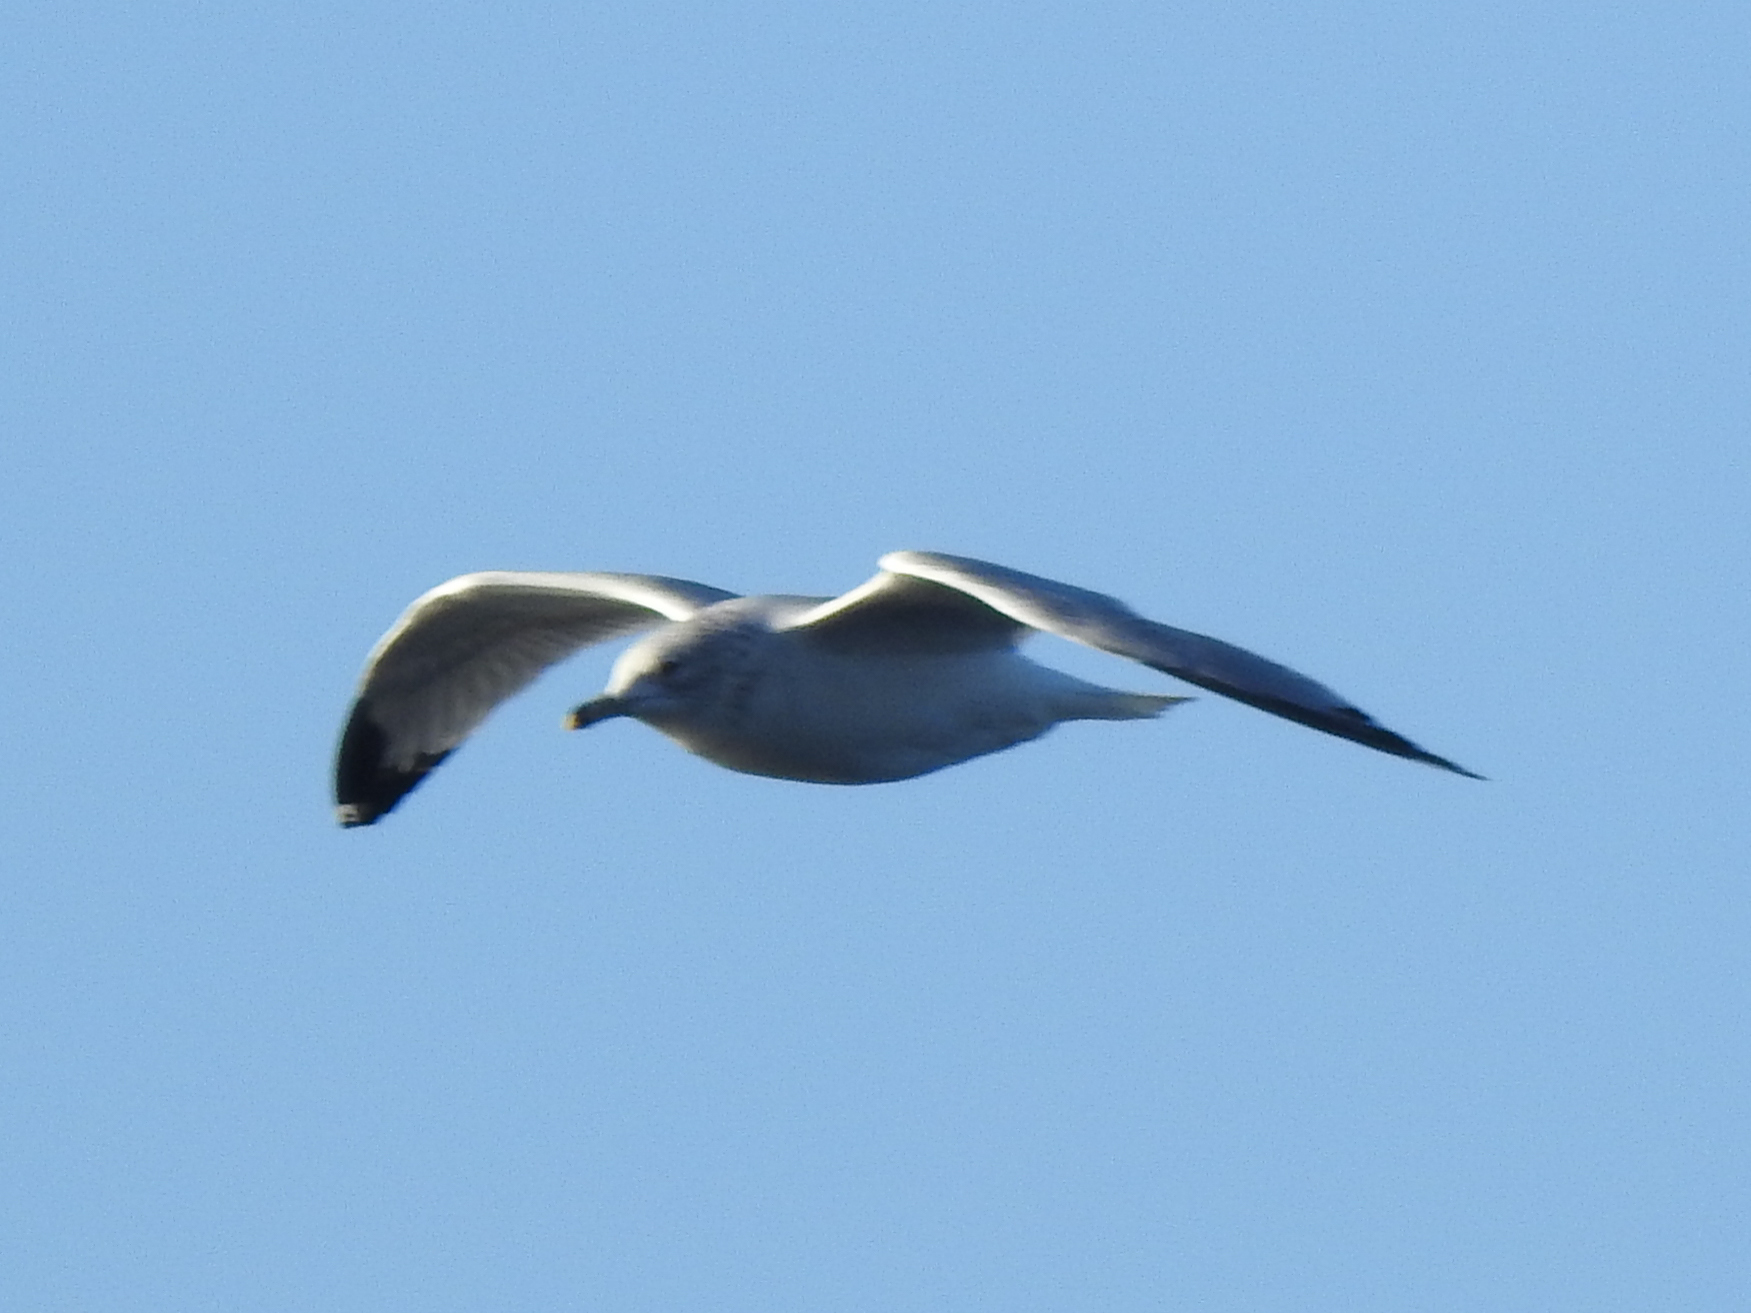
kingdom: Animalia
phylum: Chordata
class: Aves
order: Charadriiformes
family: Laridae
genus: Larus
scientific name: Larus delawarensis
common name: Ring-billed gull
